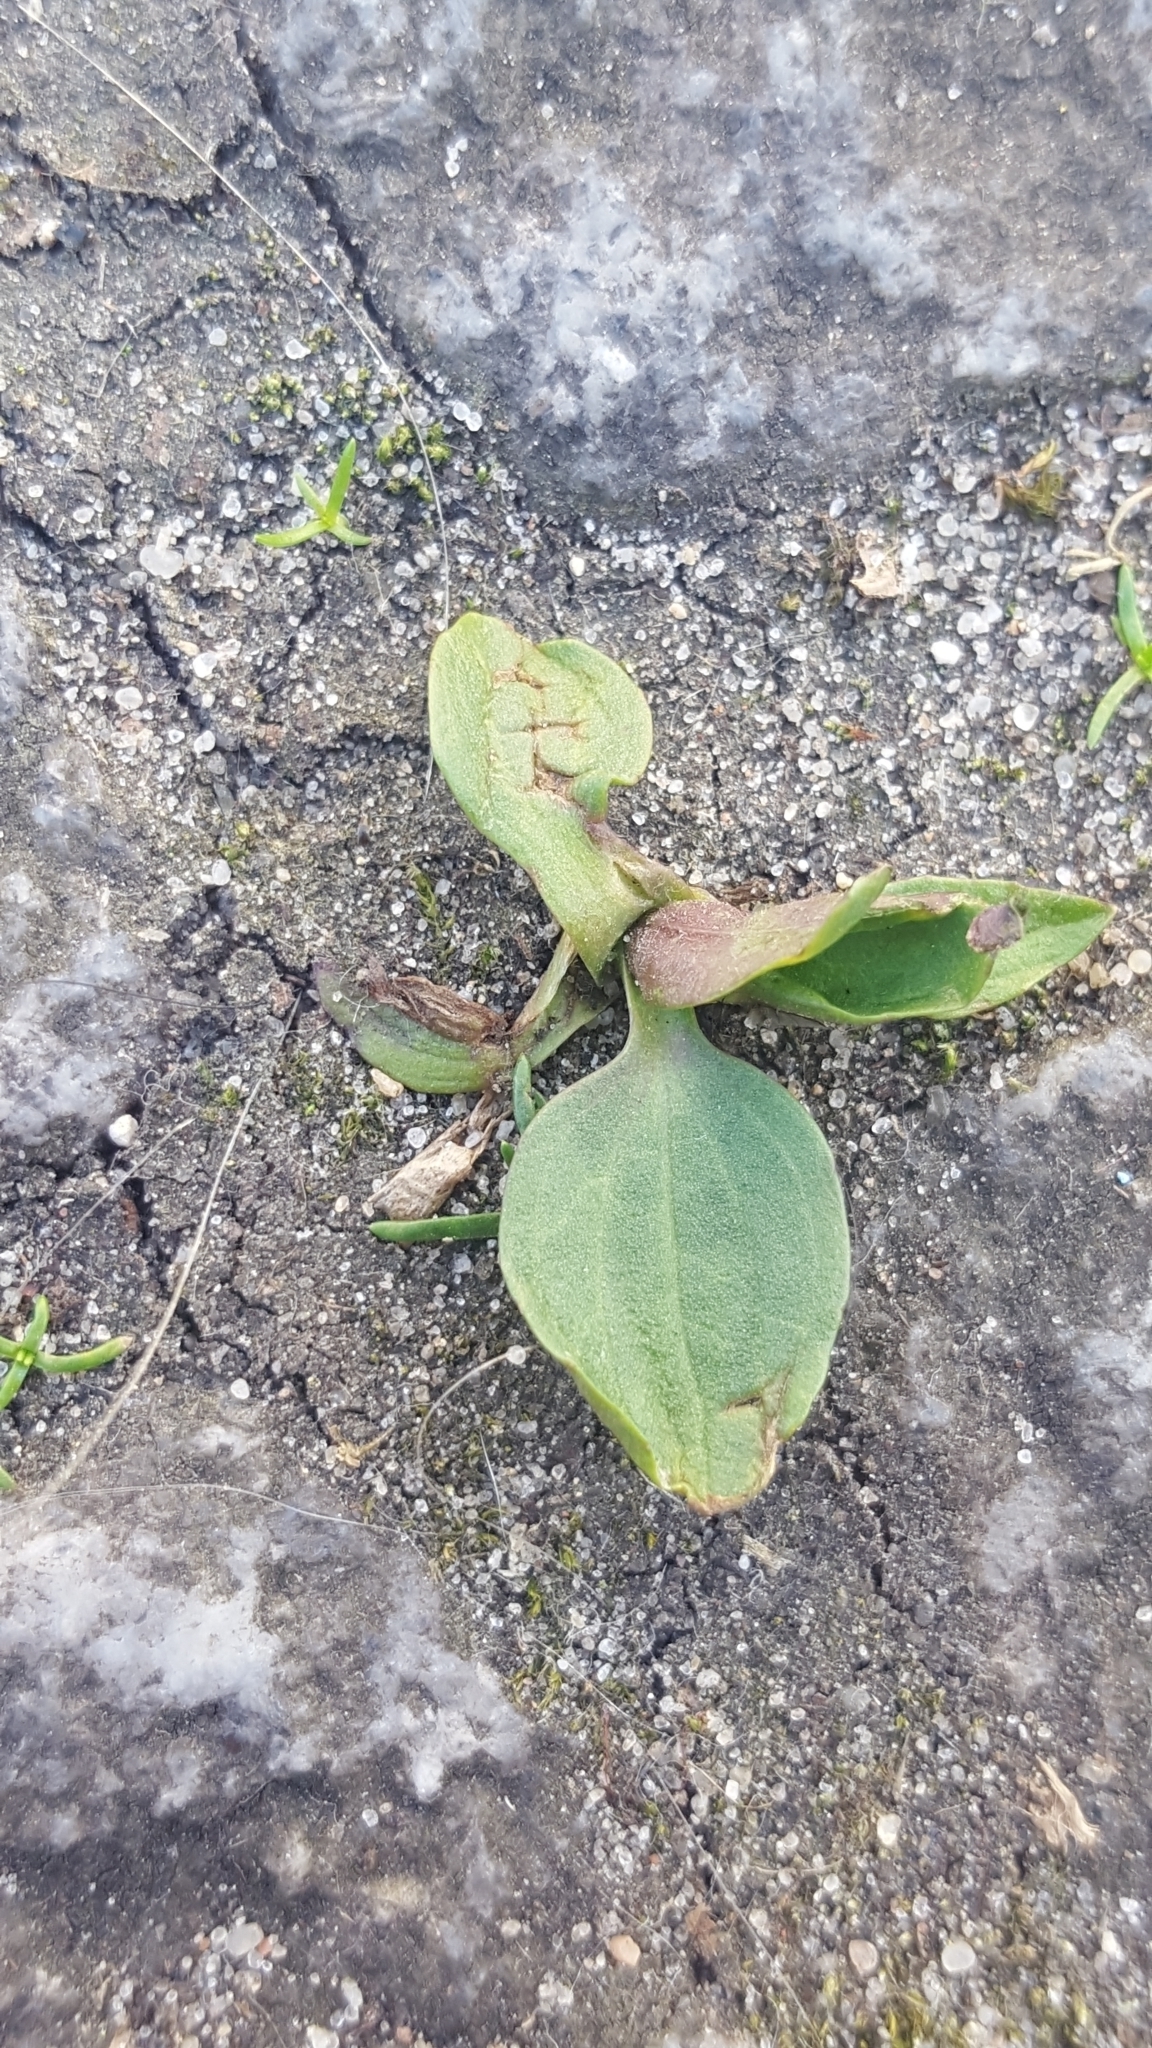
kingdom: Plantae
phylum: Tracheophyta
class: Magnoliopsida
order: Lamiales
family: Plantaginaceae
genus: Plantago
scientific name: Plantago major
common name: Common plantain
